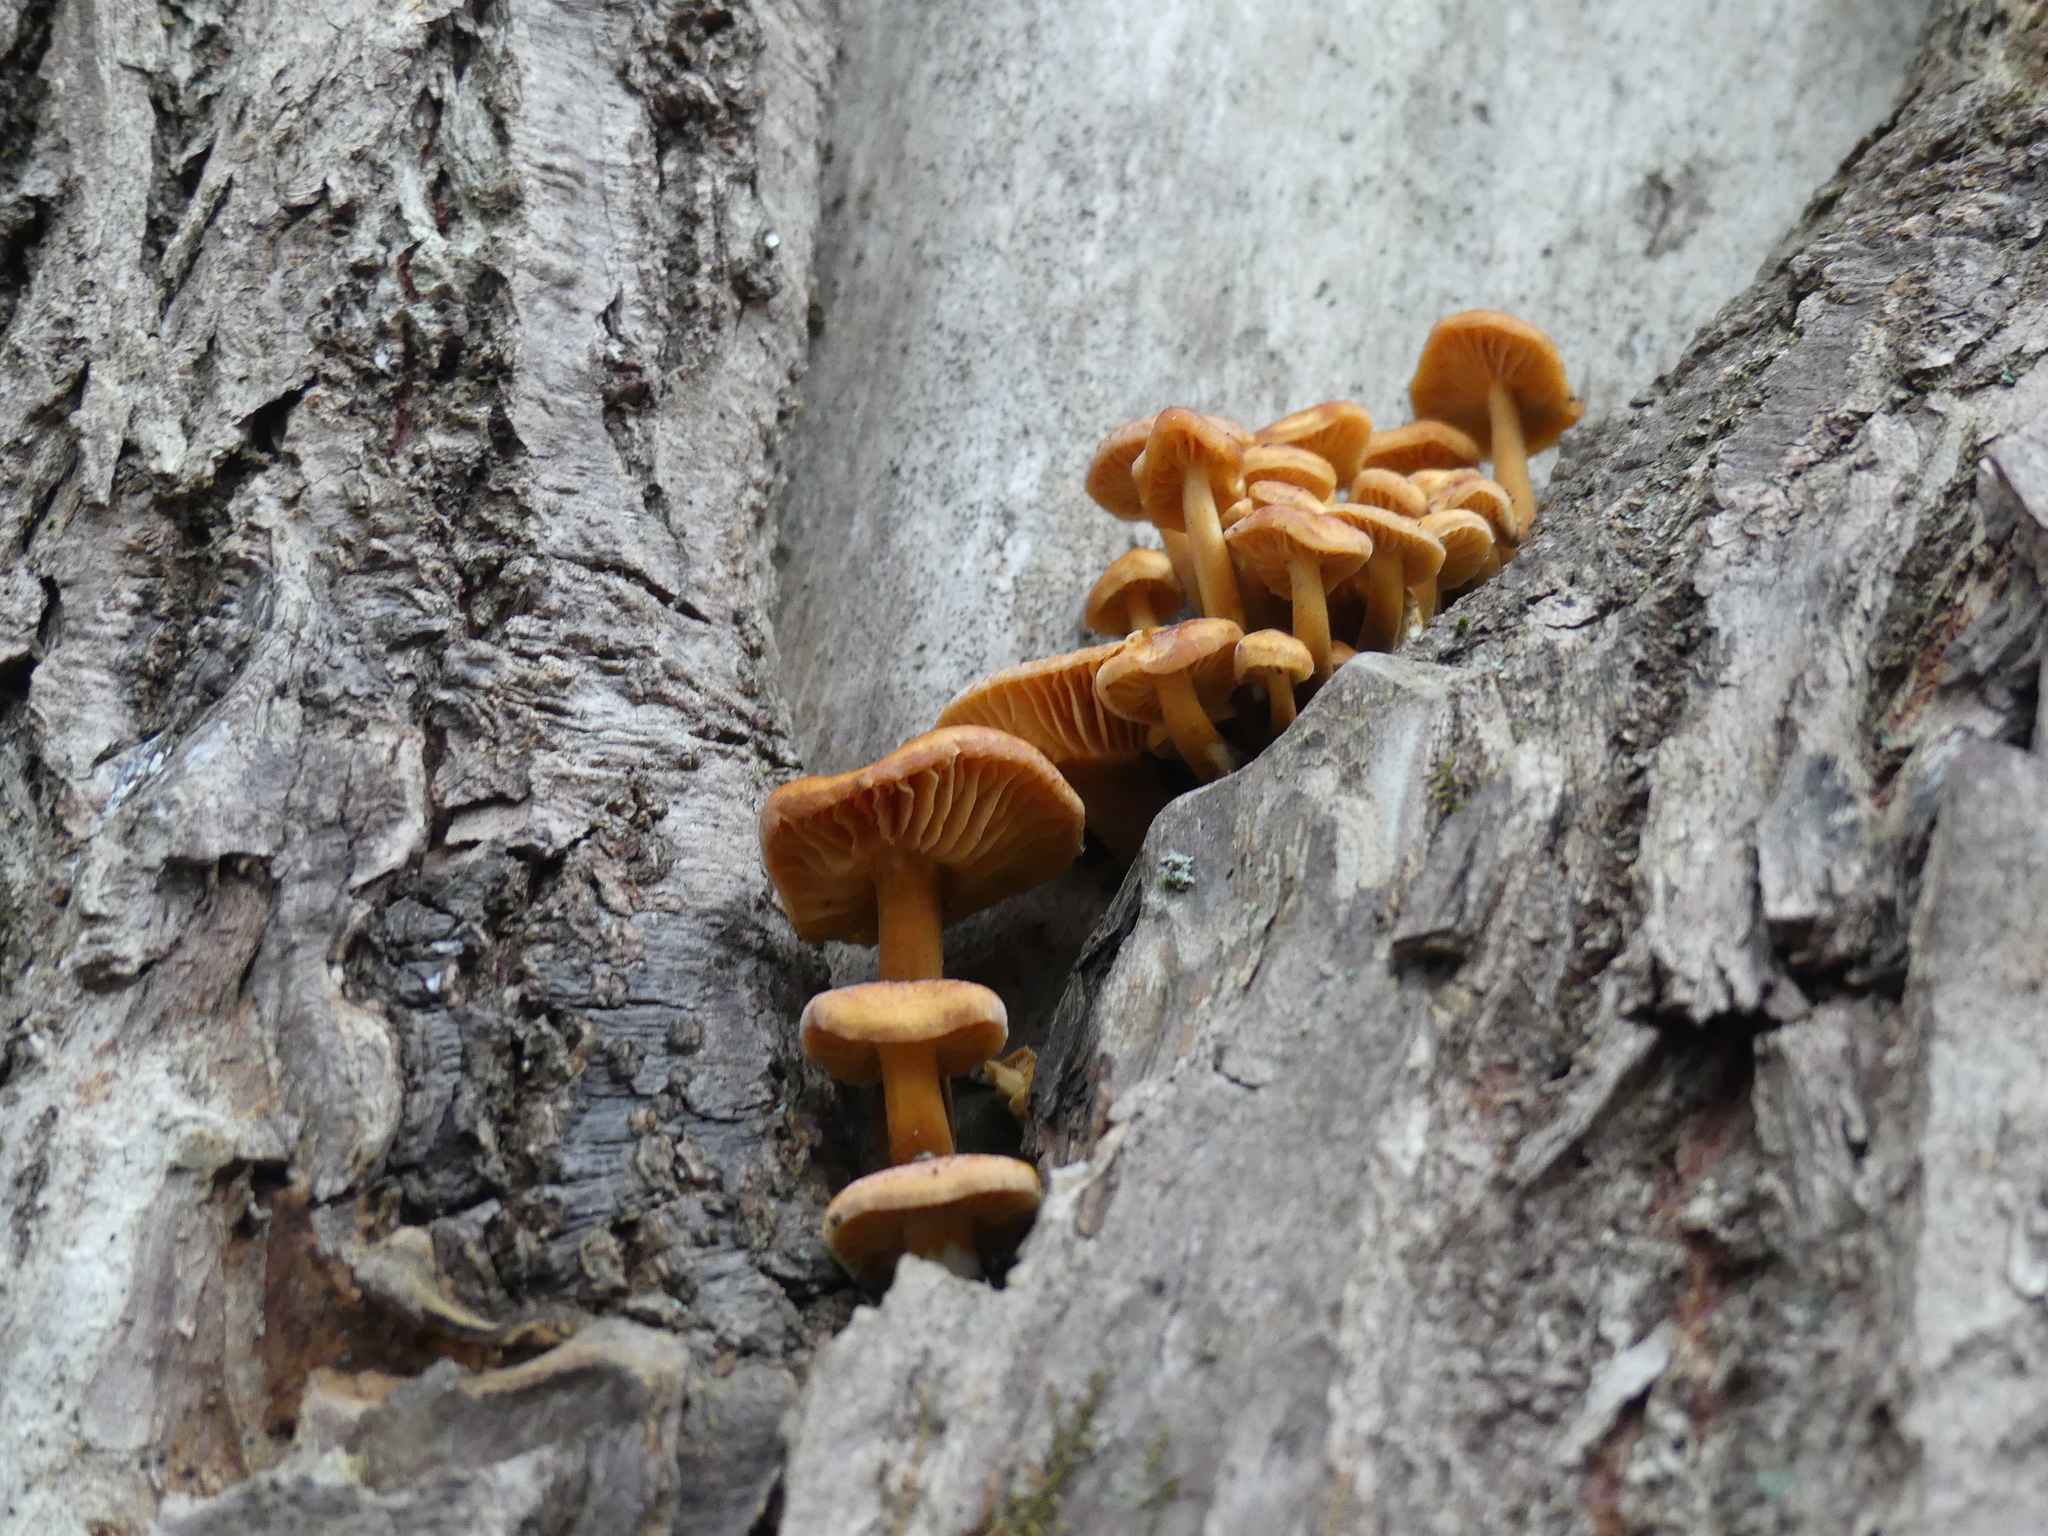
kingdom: Fungi
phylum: Basidiomycota
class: Agaricomycetes
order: Agaricales
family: Physalacriaceae
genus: Flammulina
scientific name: Flammulina
